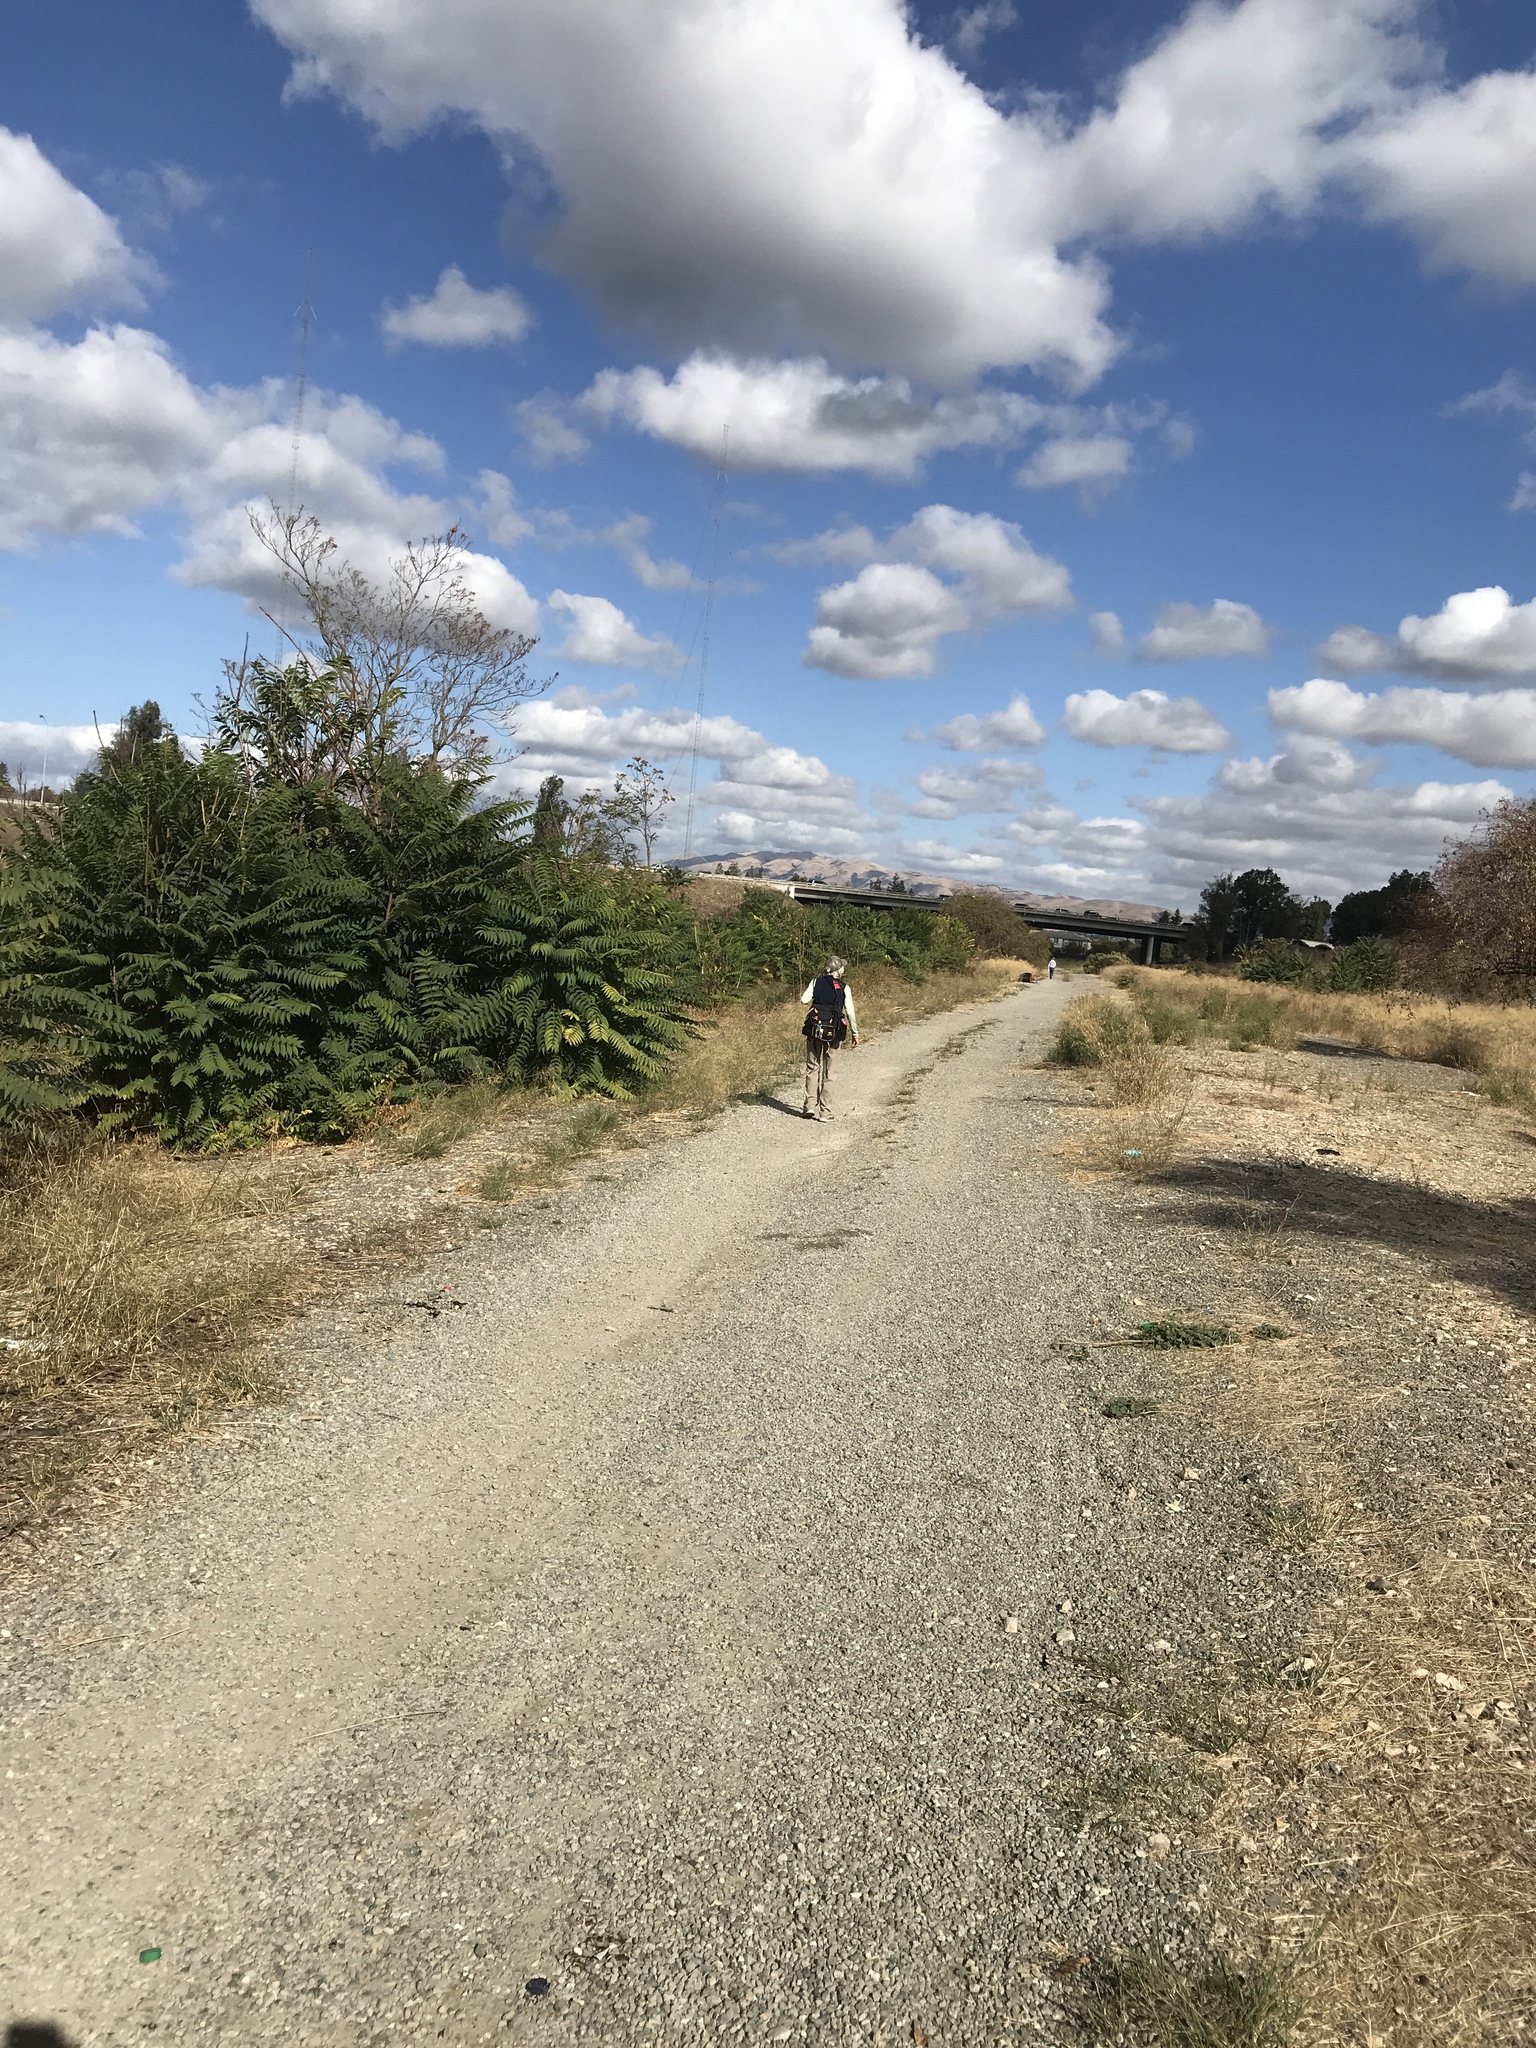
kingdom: Plantae
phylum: Tracheophyta
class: Magnoliopsida
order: Sapindales
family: Simaroubaceae
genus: Ailanthus
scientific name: Ailanthus altissima
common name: Tree-of-heaven
